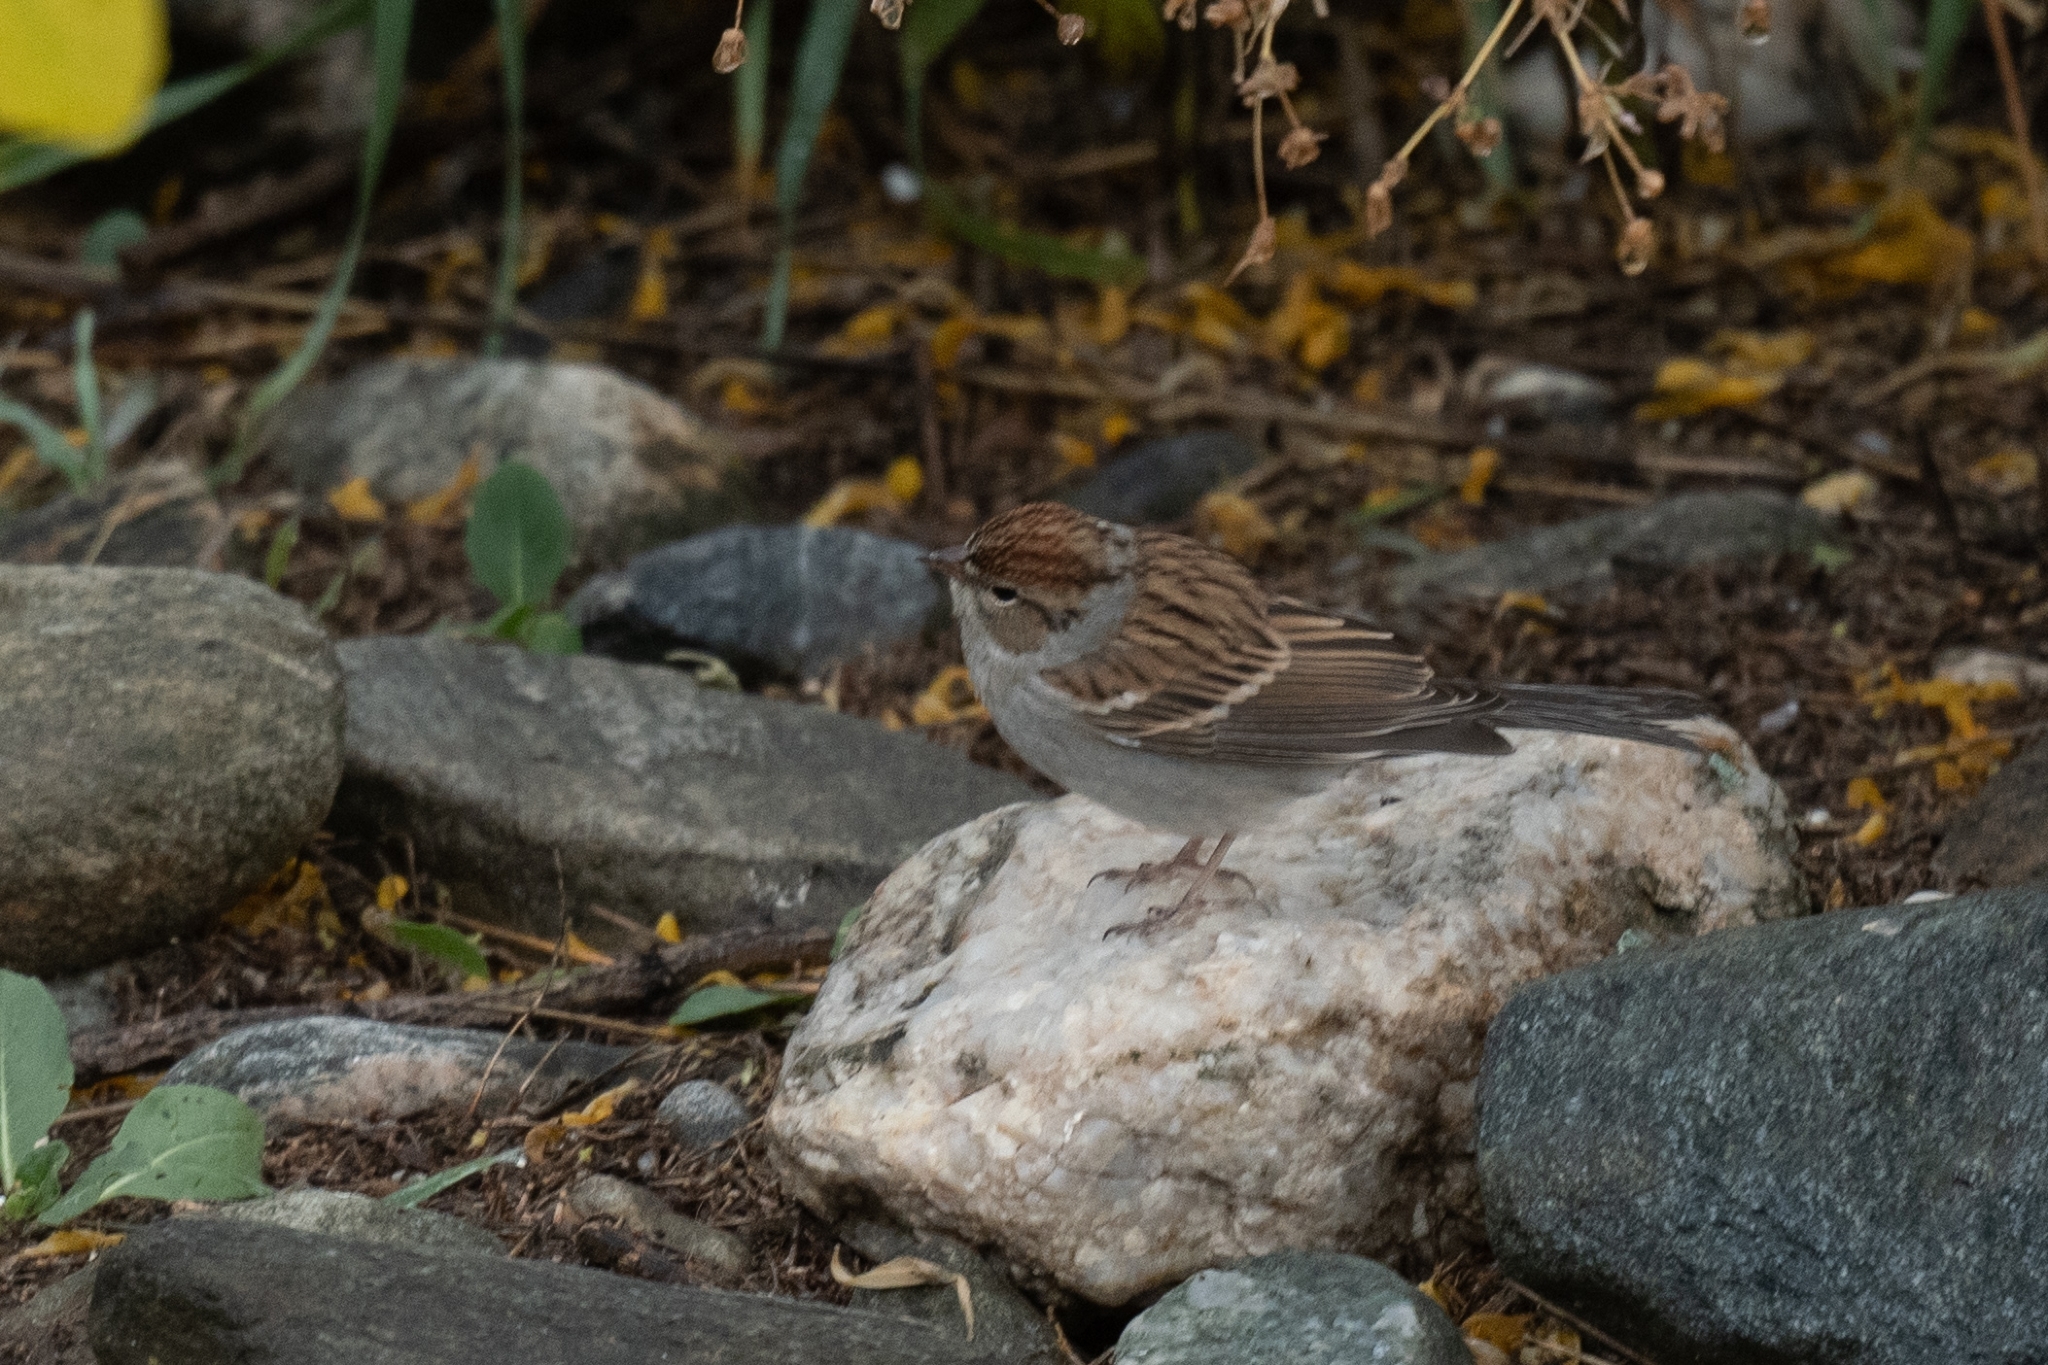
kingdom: Animalia
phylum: Chordata
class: Aves
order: Passeriformes
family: Passerellidae
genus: Spizella
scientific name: Spizella passerina
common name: Chipping sparrow
